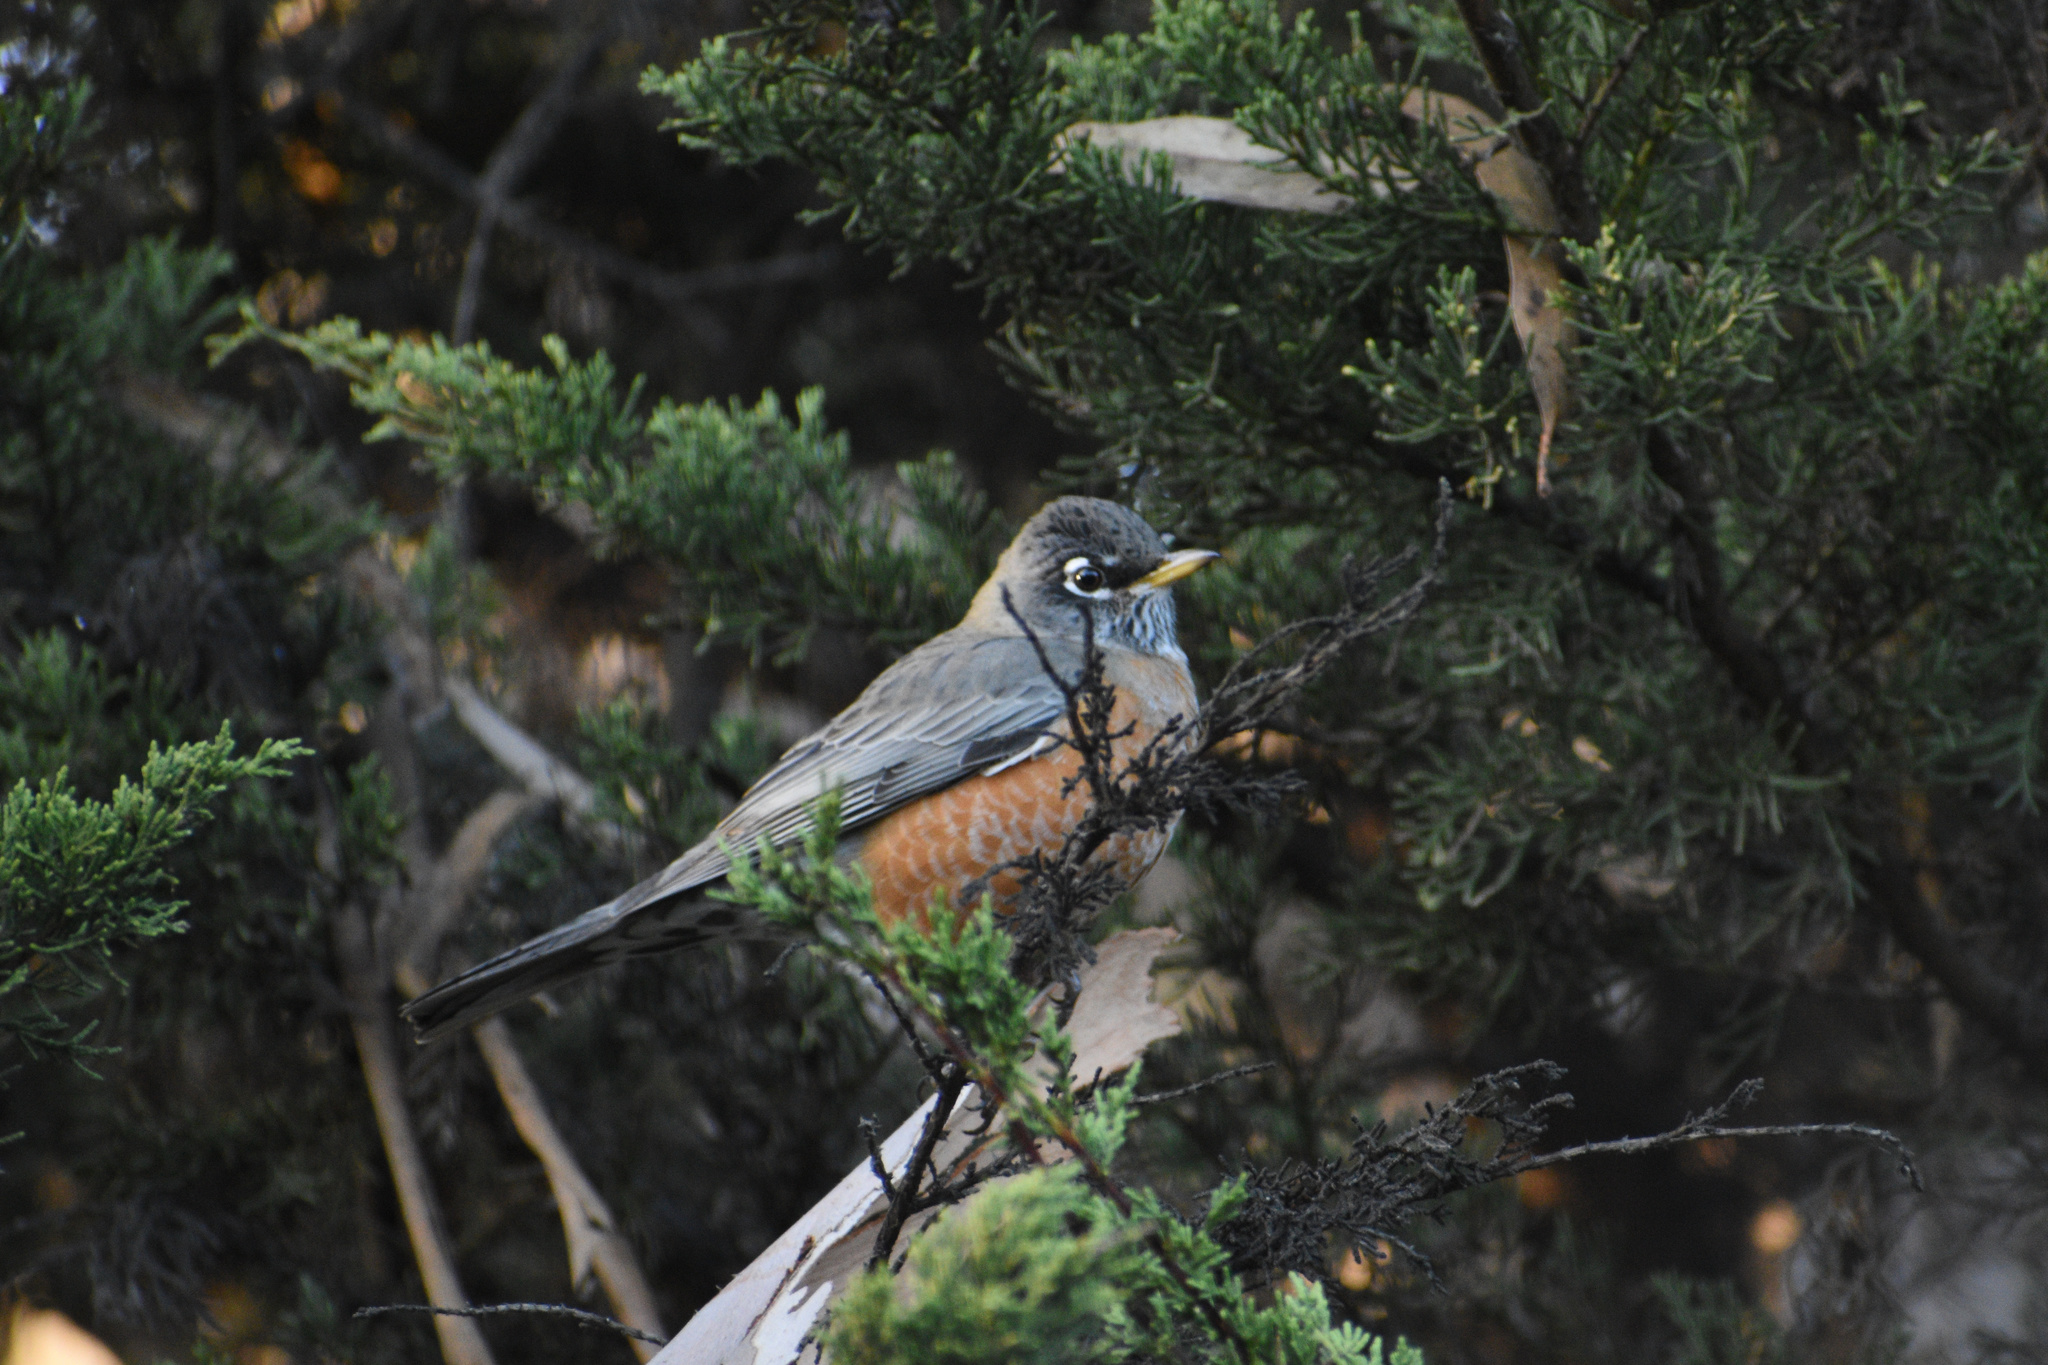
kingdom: Animalia
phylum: Chordata
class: Aves
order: Passeriformes
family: Turdidae
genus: Turdus
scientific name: Turdus migratorius
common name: American robin
